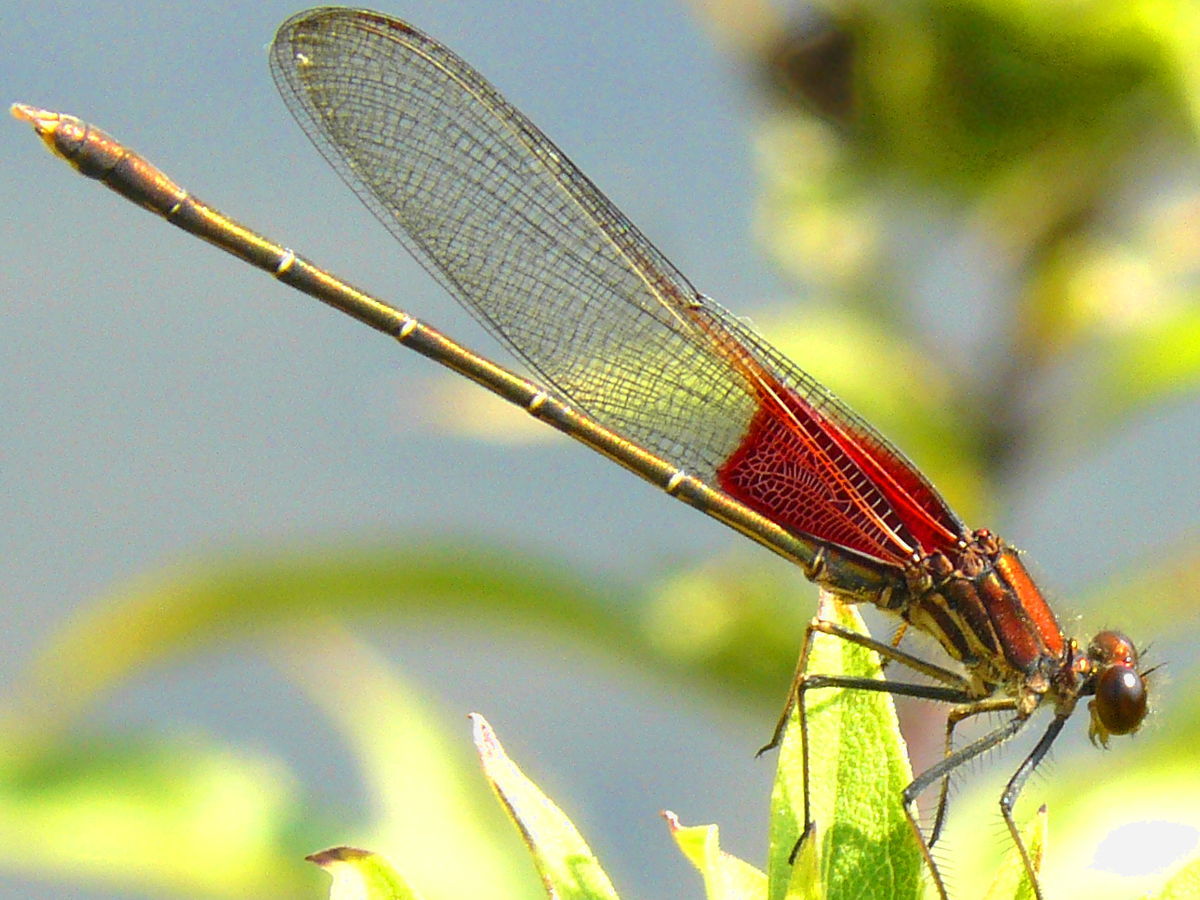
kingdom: Animalia
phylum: Arthropoda
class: Insecta
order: Odonata
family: Calopterygidae
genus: Hetaerina
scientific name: Hetaerina americana
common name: American rubyspot
